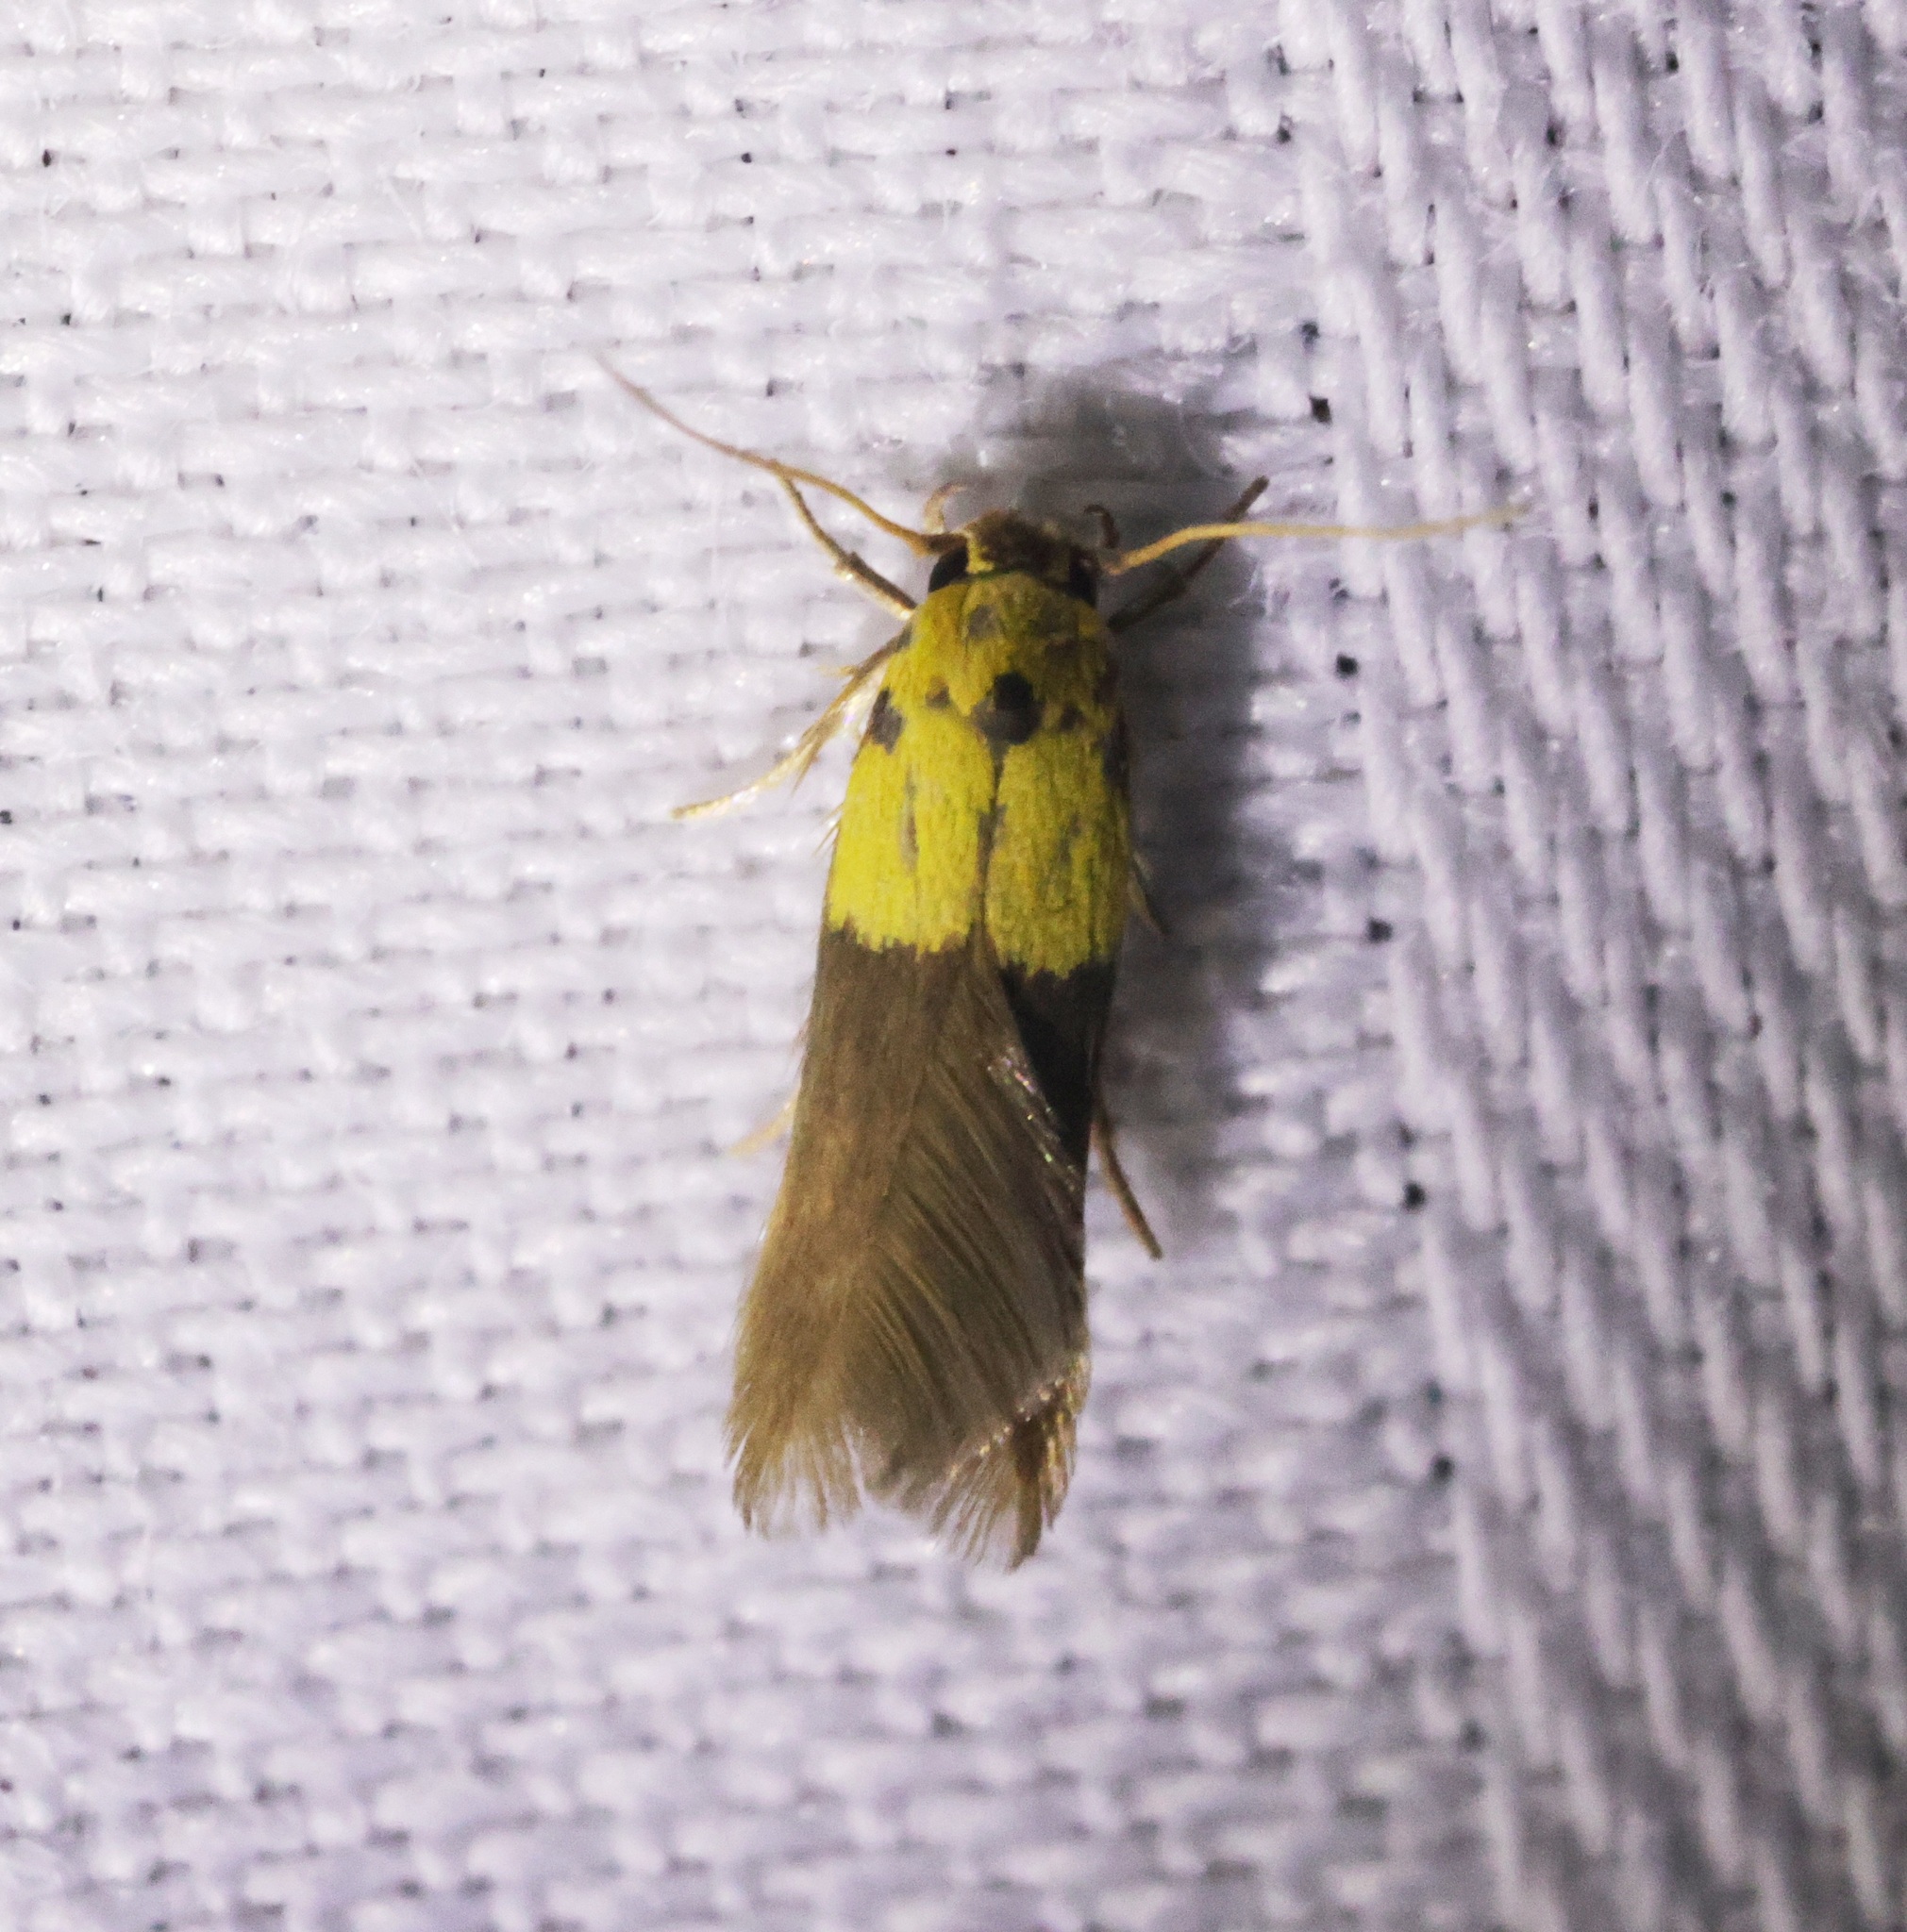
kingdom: Animalia
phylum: Arthropoda
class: Insecta
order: Lepidoptera
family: Stathmopodidae
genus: Stathmopoda
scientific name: Stathmopoda auriferella
